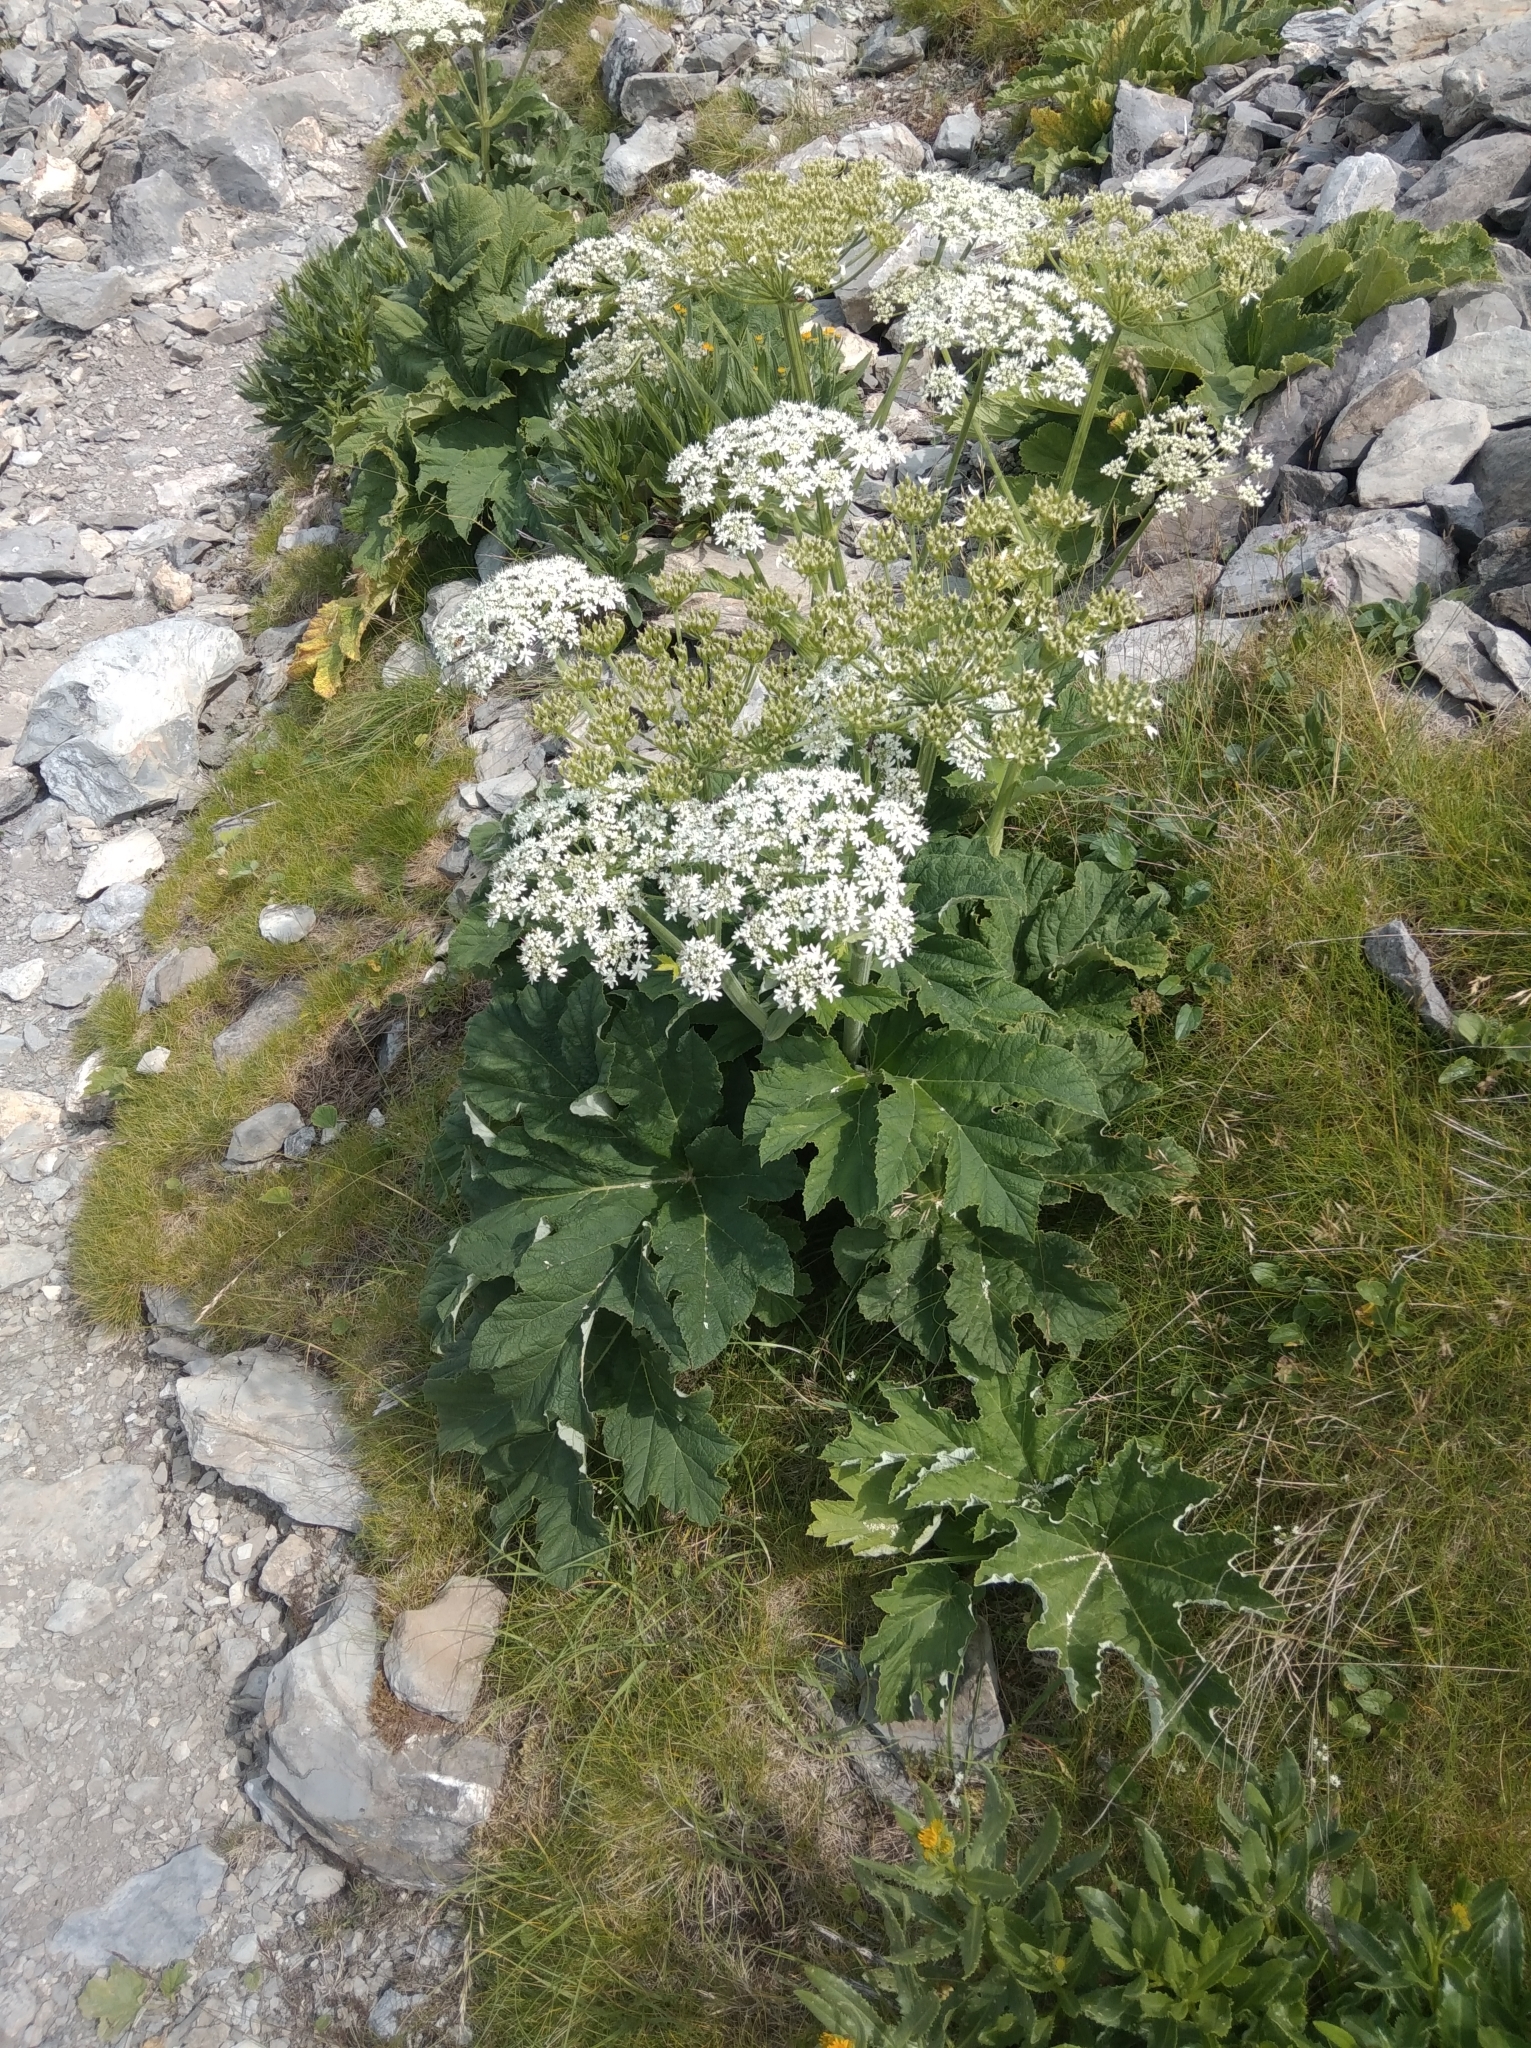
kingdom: Plantae
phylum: Tracheophyta
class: Magnoliopsida
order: Apiales
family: Apiaceae
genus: Heracleum
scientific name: Heracleum sphondylium
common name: Hogweed
